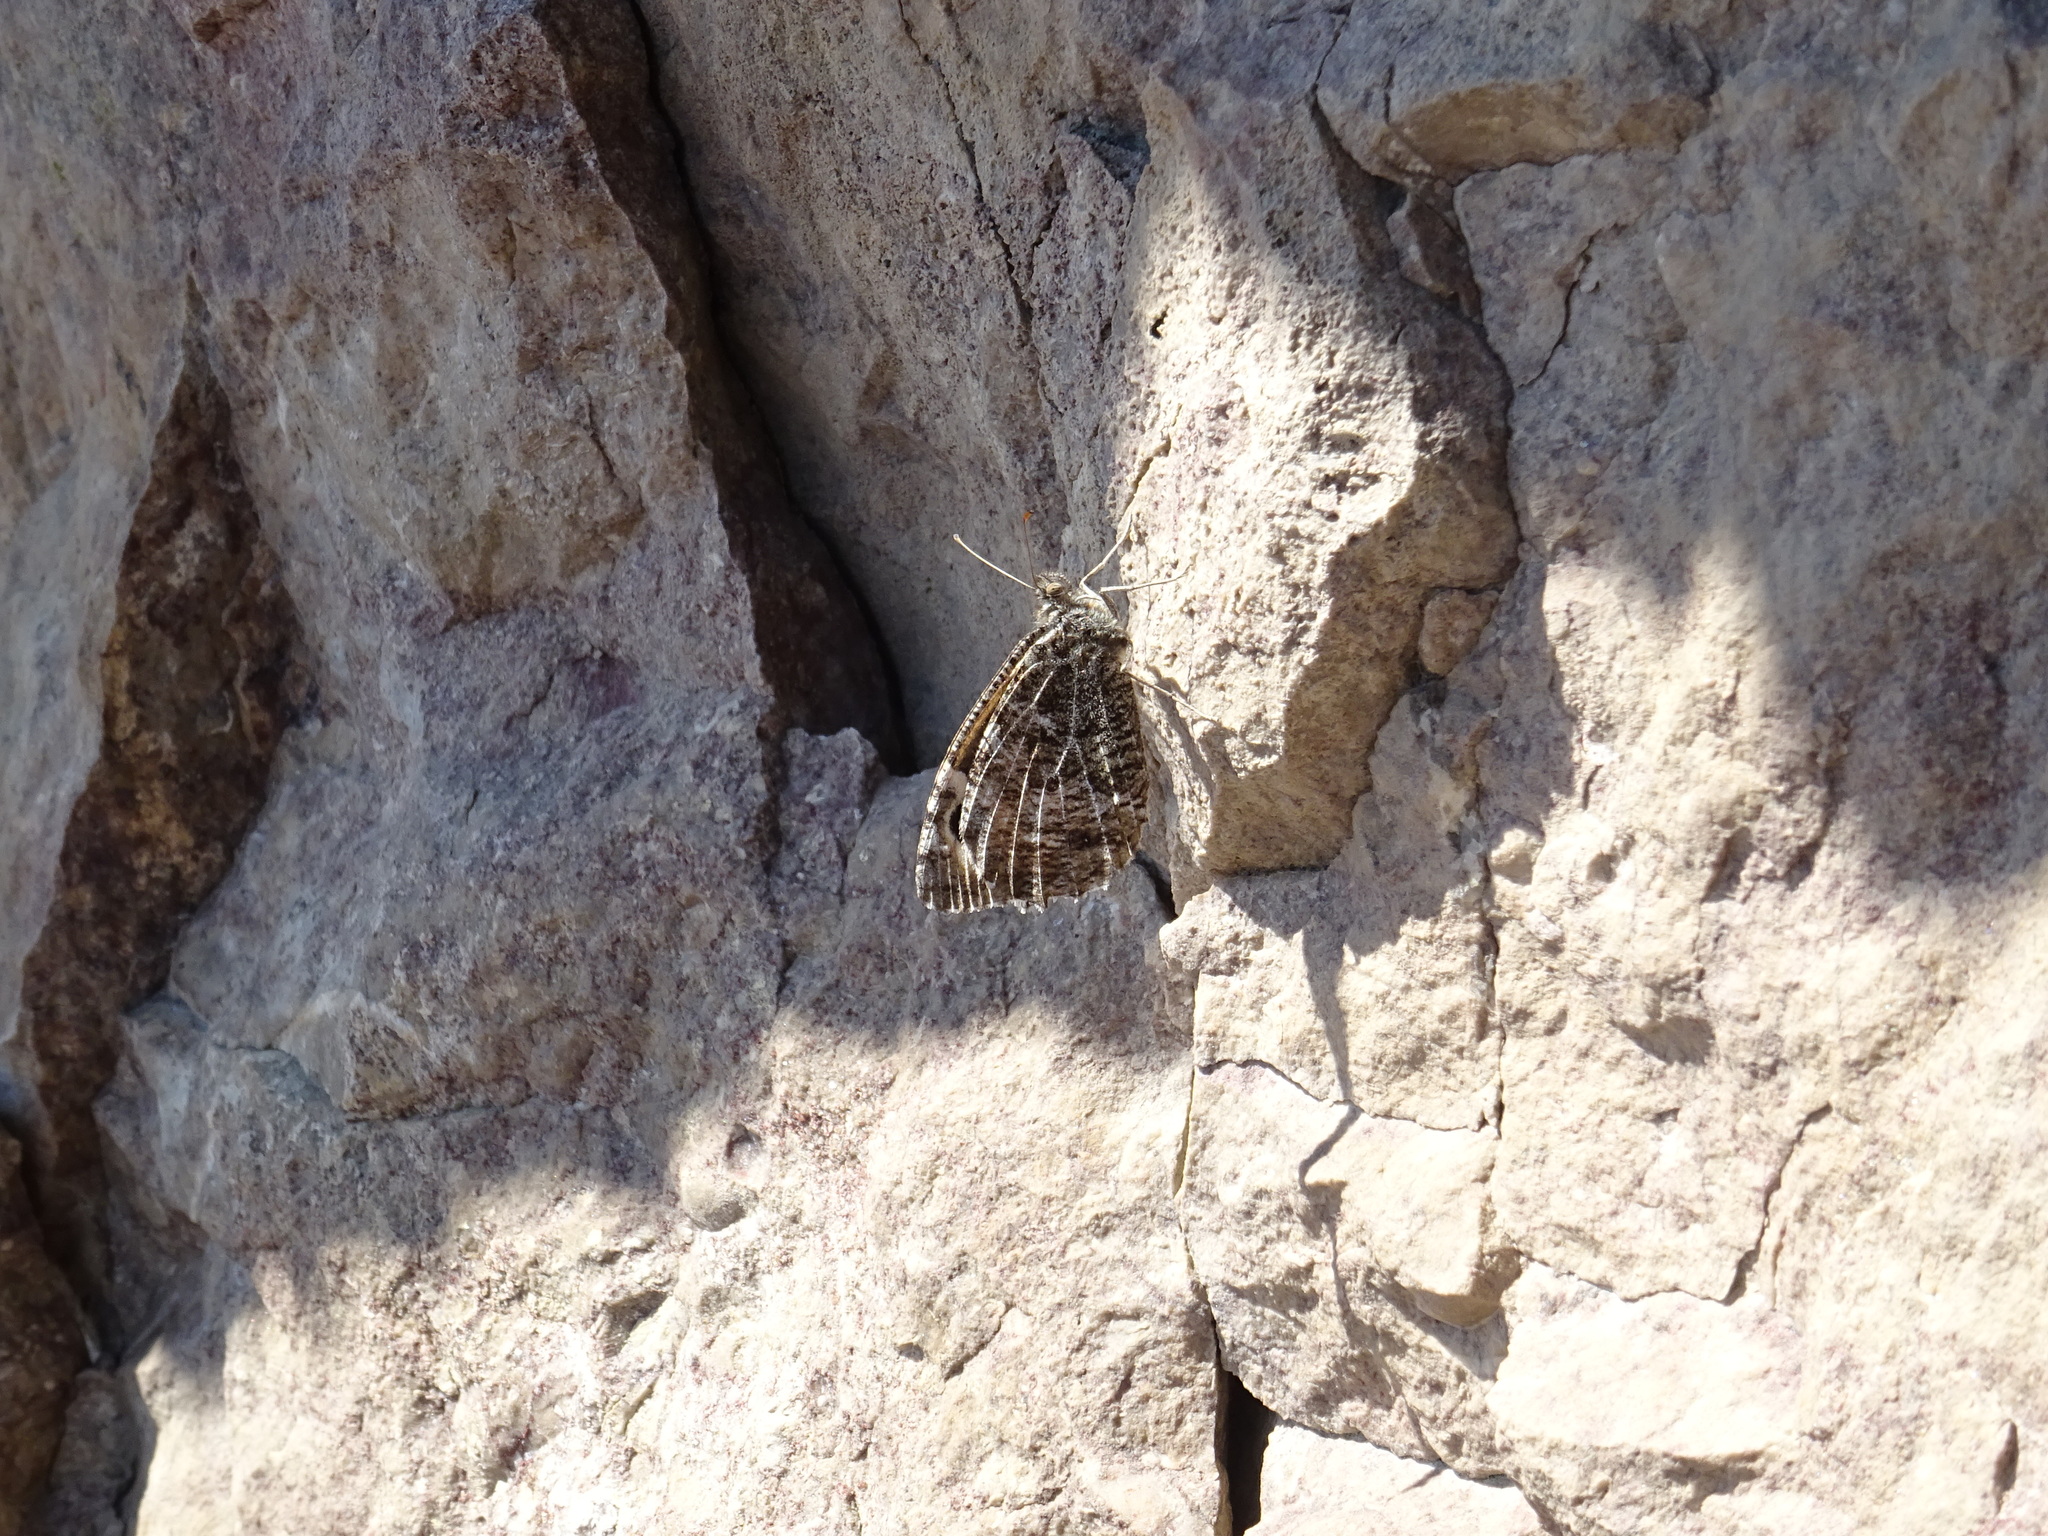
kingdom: Animalia
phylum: Arthropoda
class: Insecta
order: Lepidoptera
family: Nymphalidae
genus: Hipparchia
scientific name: Hipparchia semele
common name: Grayling
